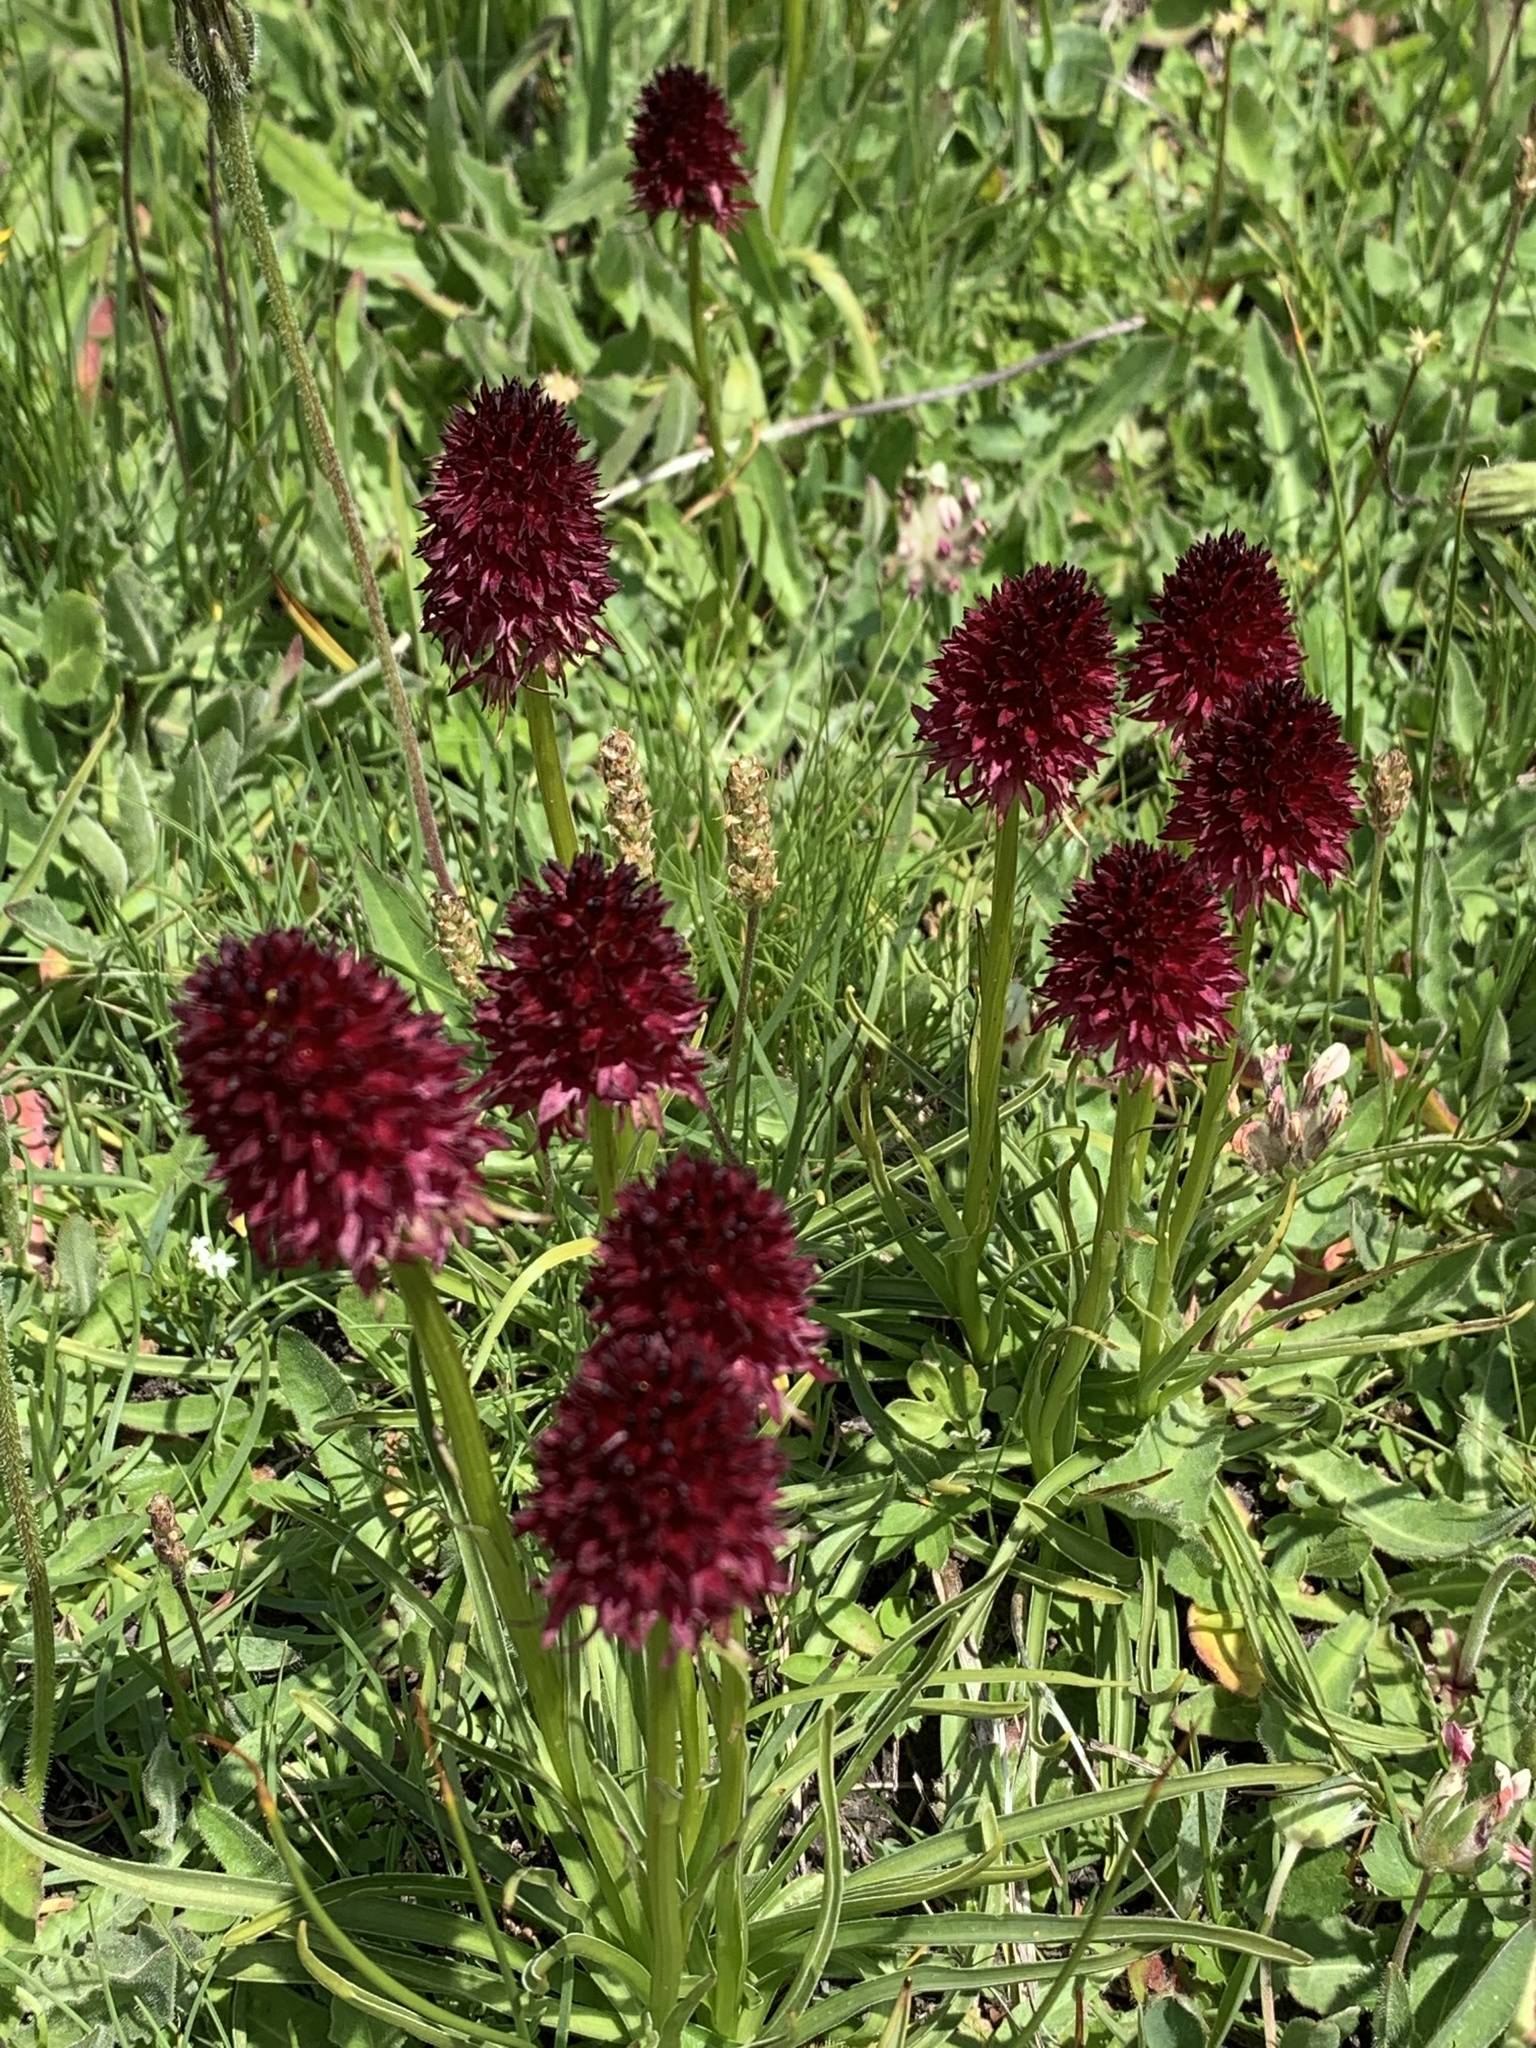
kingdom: Plantae
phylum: Tracheophyta
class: Liliopsida
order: Asparagales
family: Orchidaceae
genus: Gymnadenia
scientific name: Gymnadenia rhellicani
